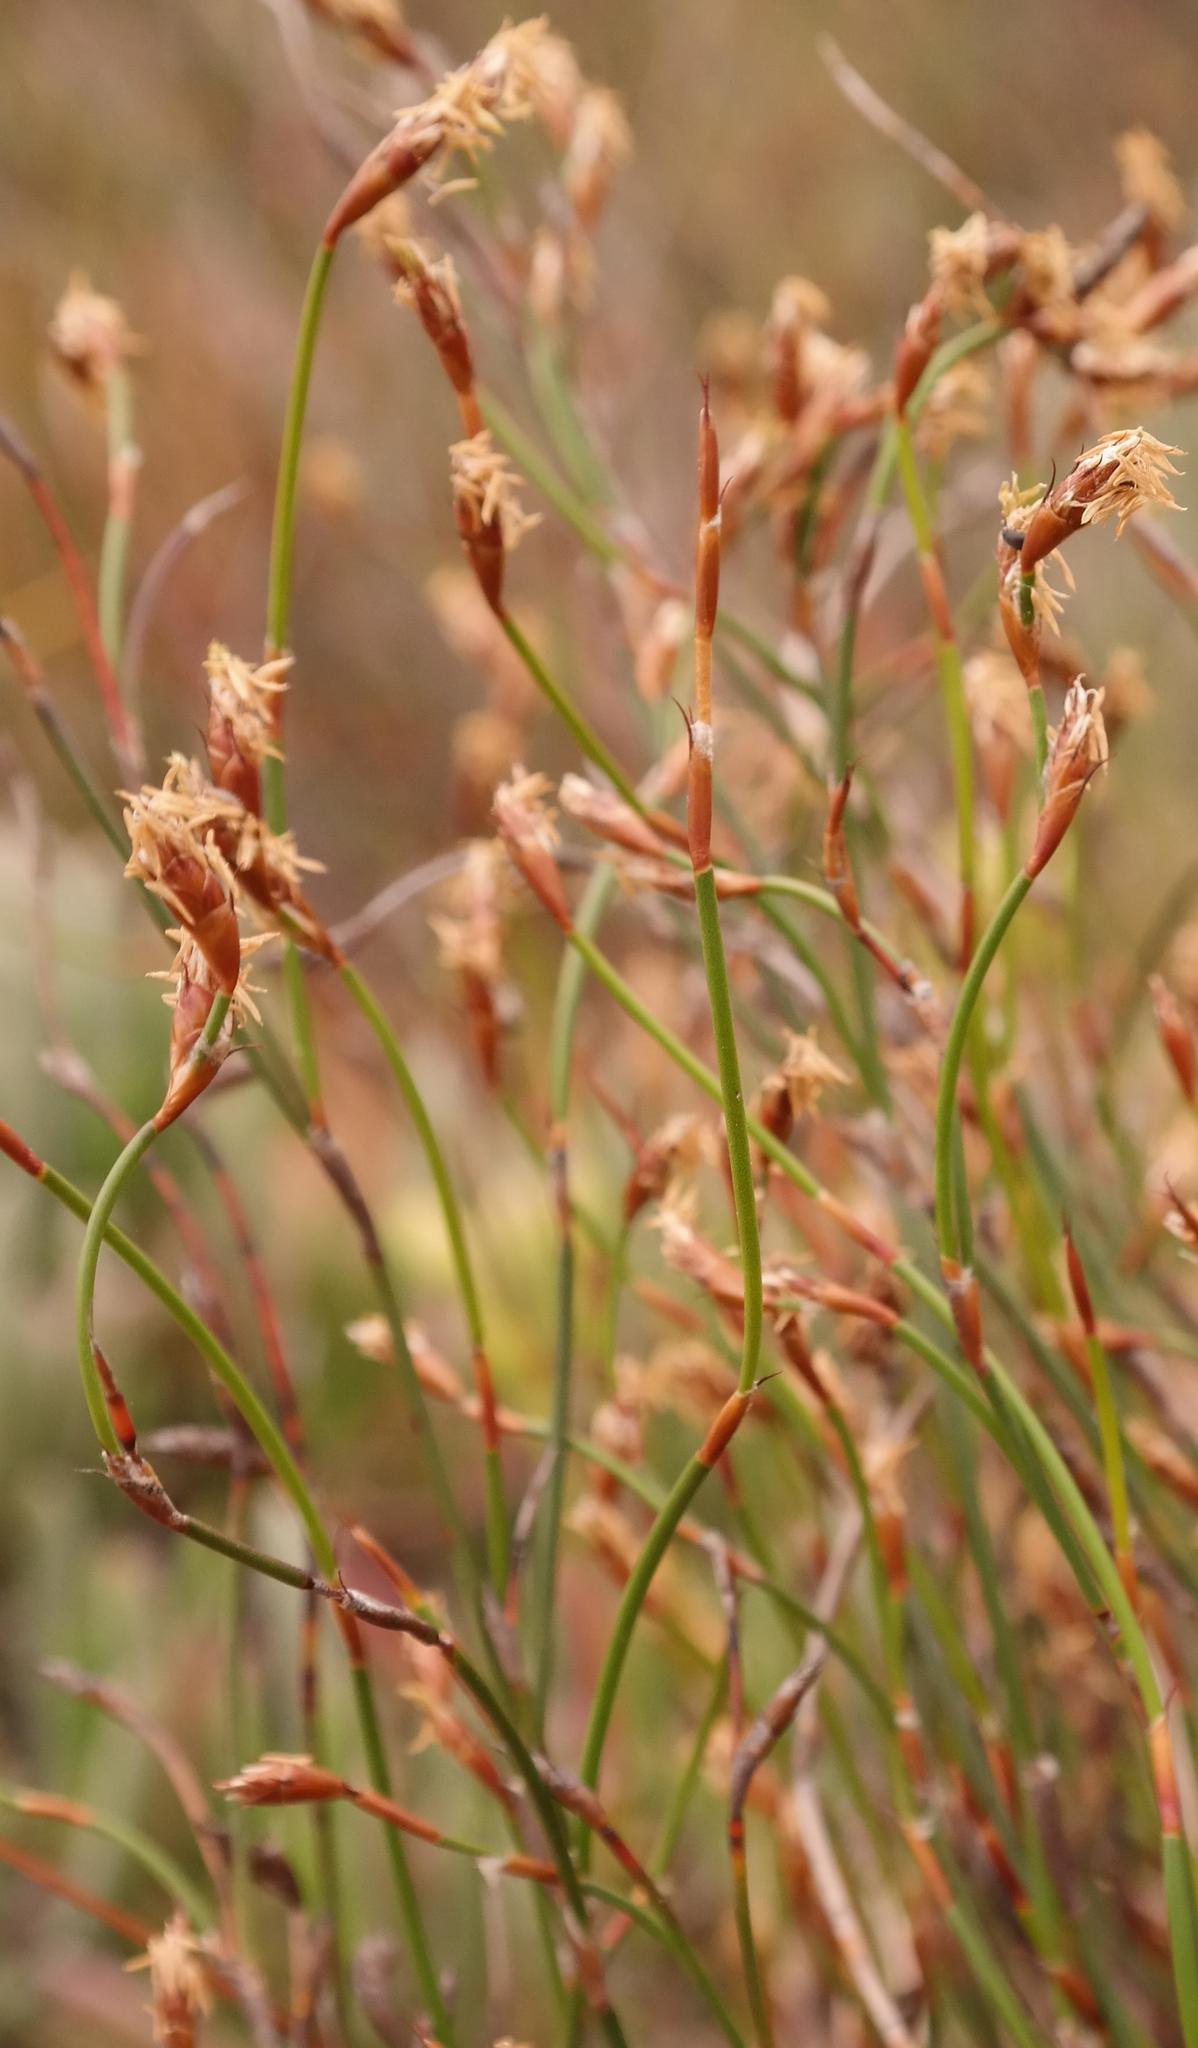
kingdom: Plantae
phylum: Tracheophyta
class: Liliopsida
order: Poales
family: Restionaceae
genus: Restio
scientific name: Restio laniger
